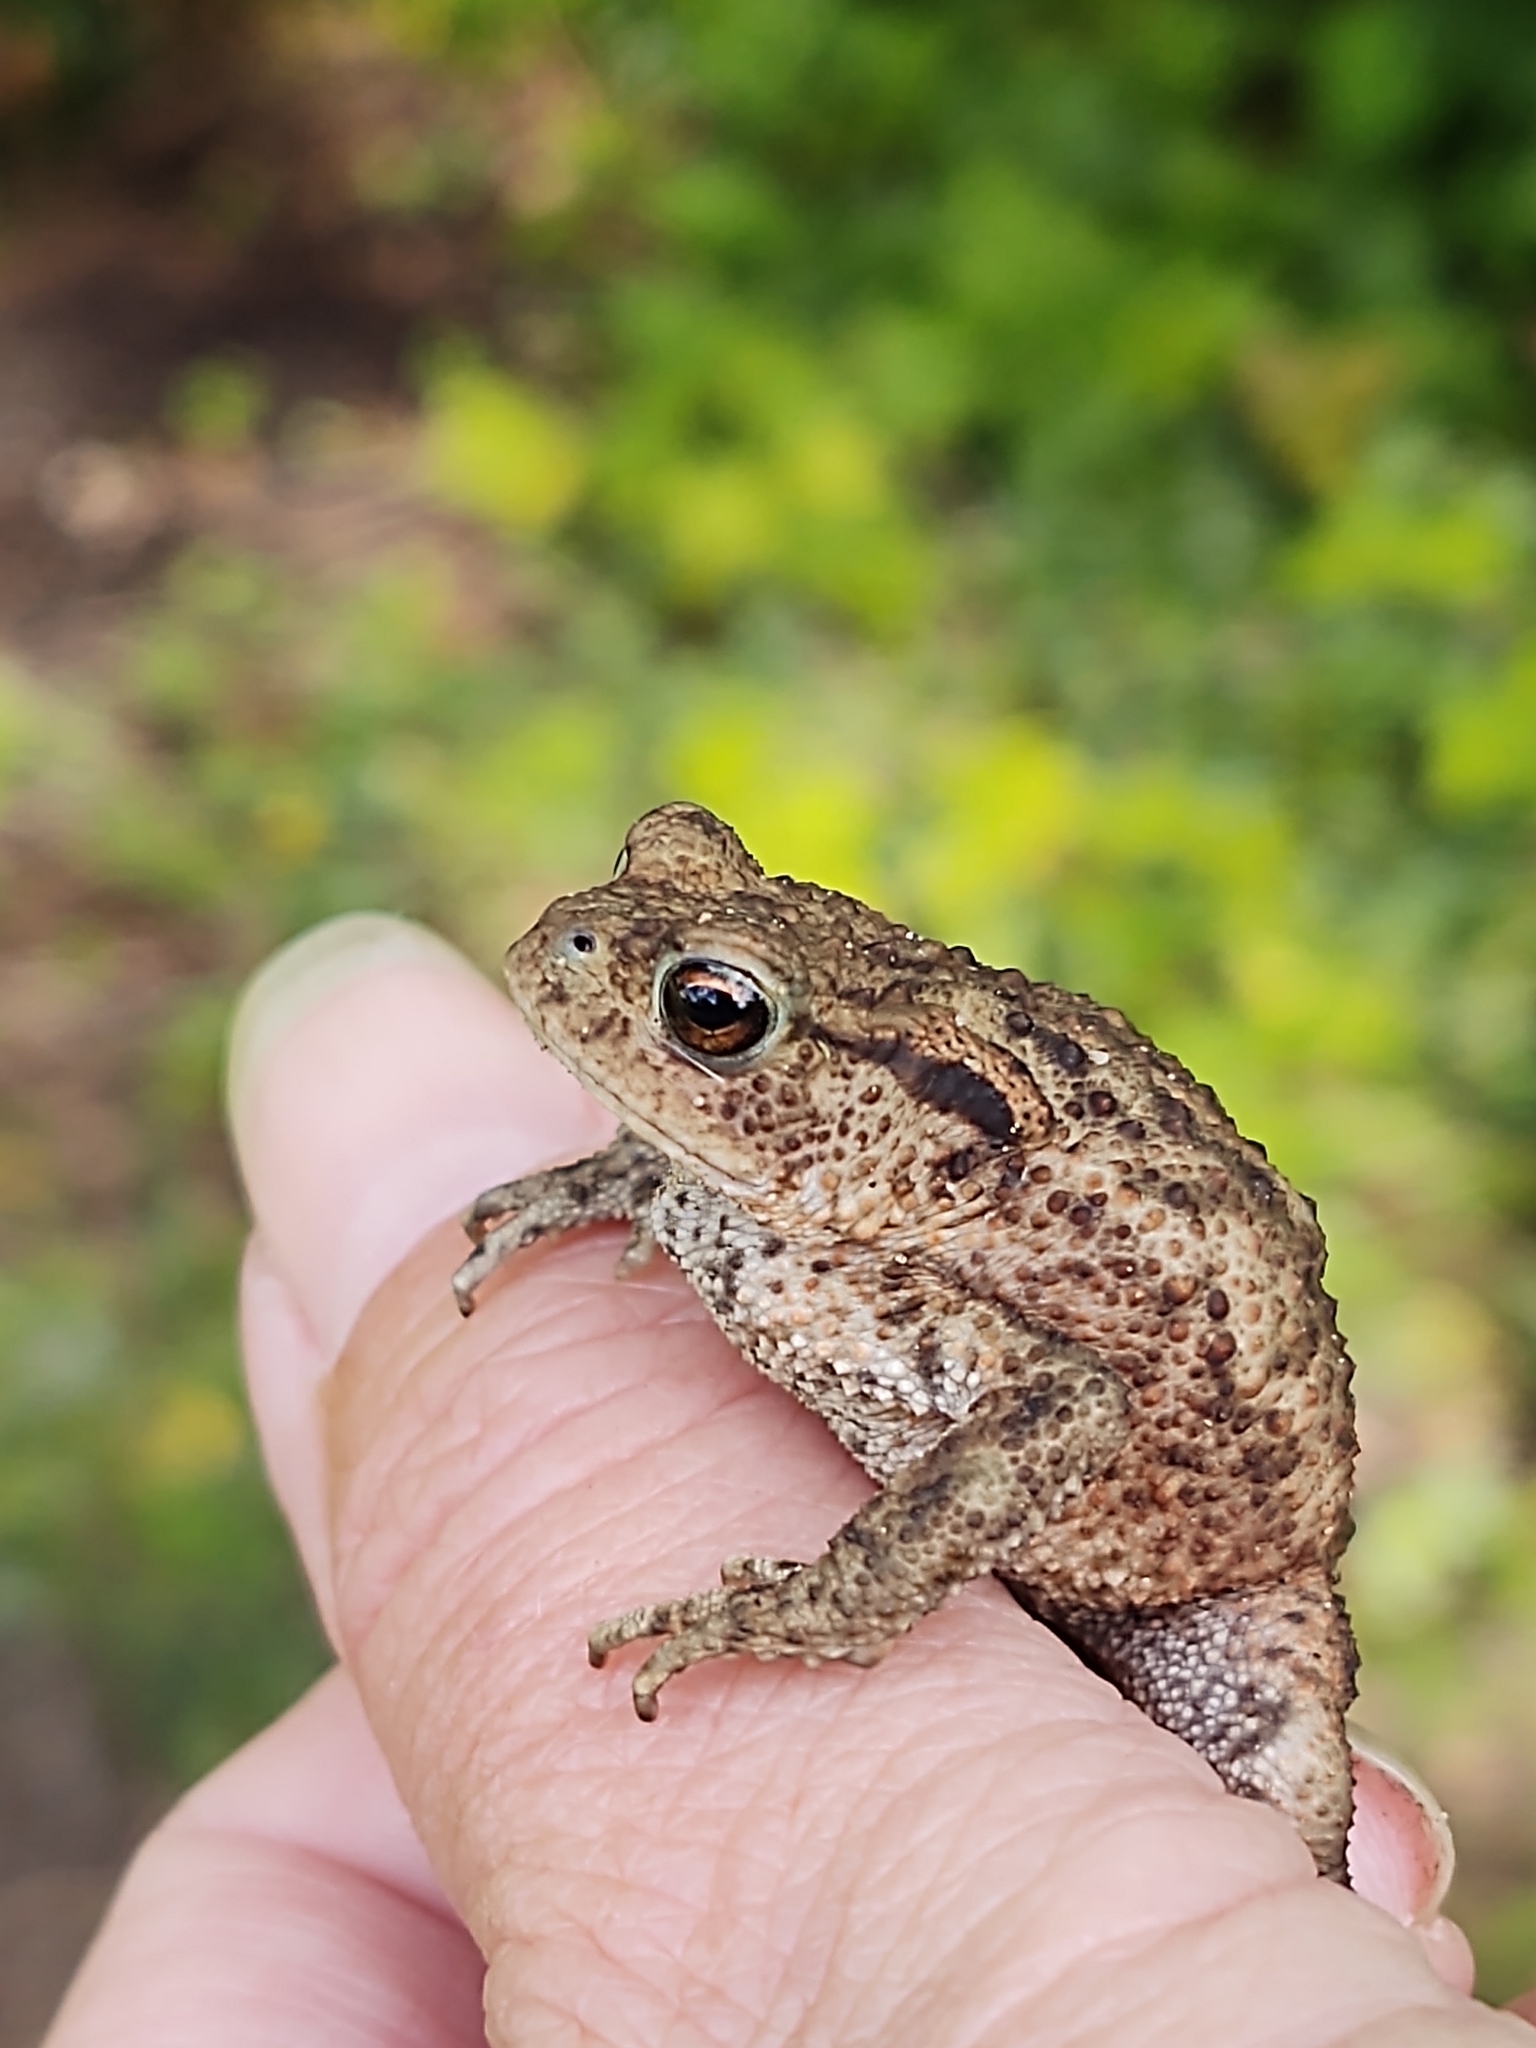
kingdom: Animalia
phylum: Chordata
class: Amphibia
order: Anura
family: Bufonidae
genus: Bufo
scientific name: Bufo bufo
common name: Common toad
